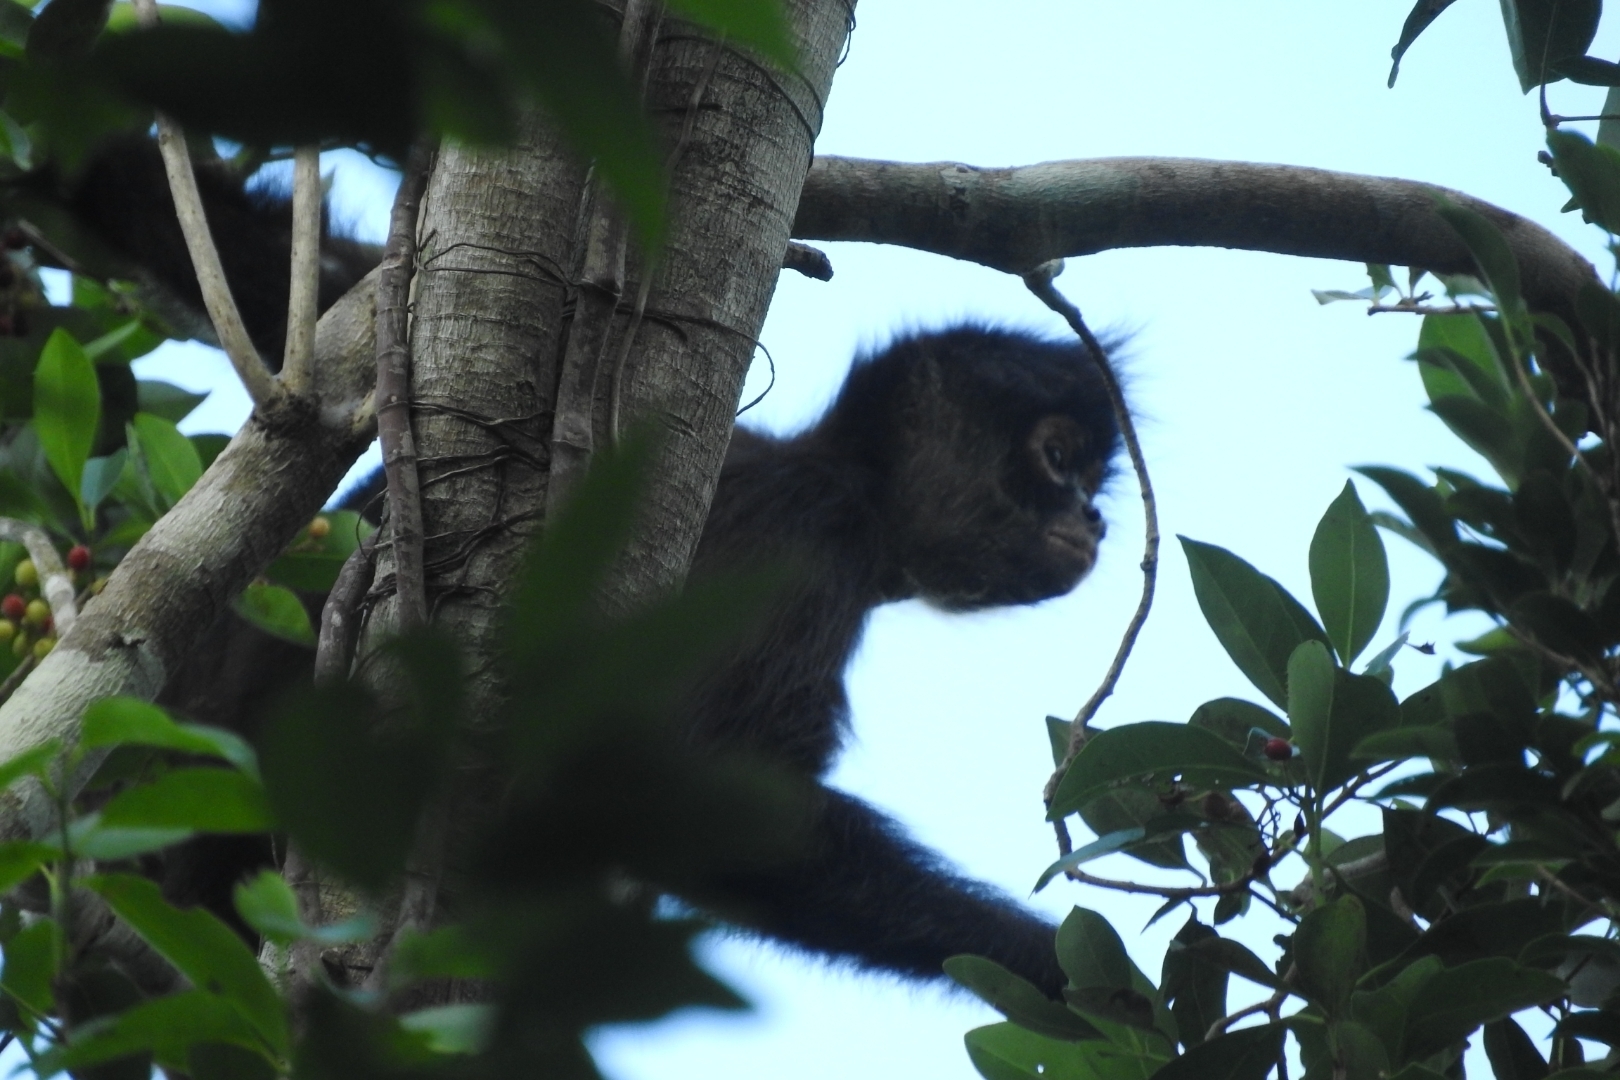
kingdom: Animalia
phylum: Chordata
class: Mammalia
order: Primates
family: Atelidae
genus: Ateles
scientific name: Ateles geoffroyi
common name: Black-handed spider monkey
